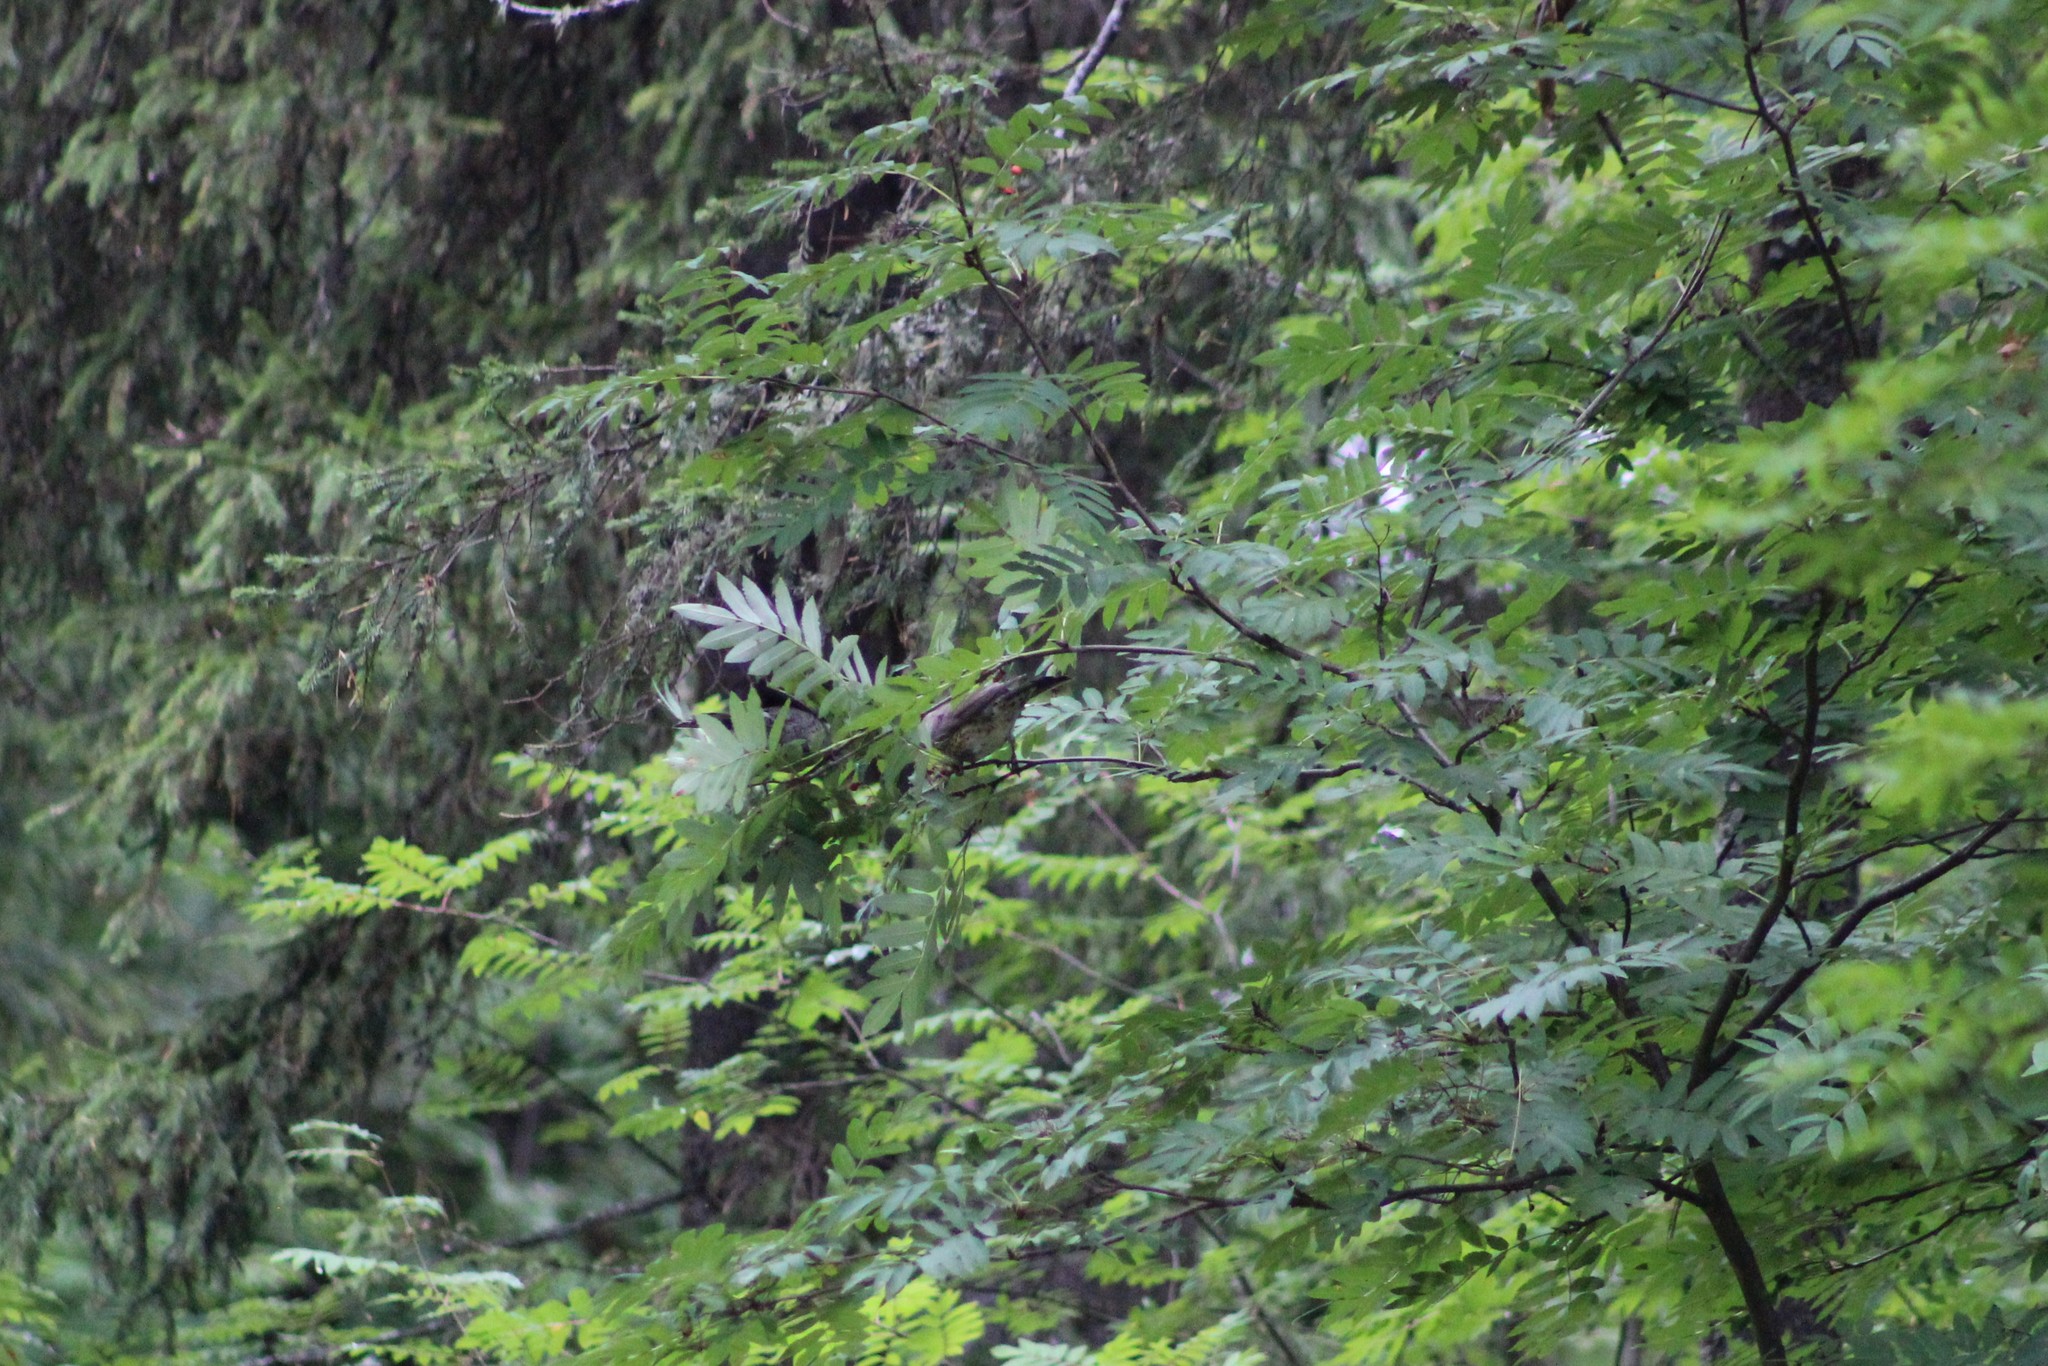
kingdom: Animalia
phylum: Chordata
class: Aves
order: Passeriformes
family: Turdidae
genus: Turdus
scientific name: Turdus pilaris
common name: Fieldfare
